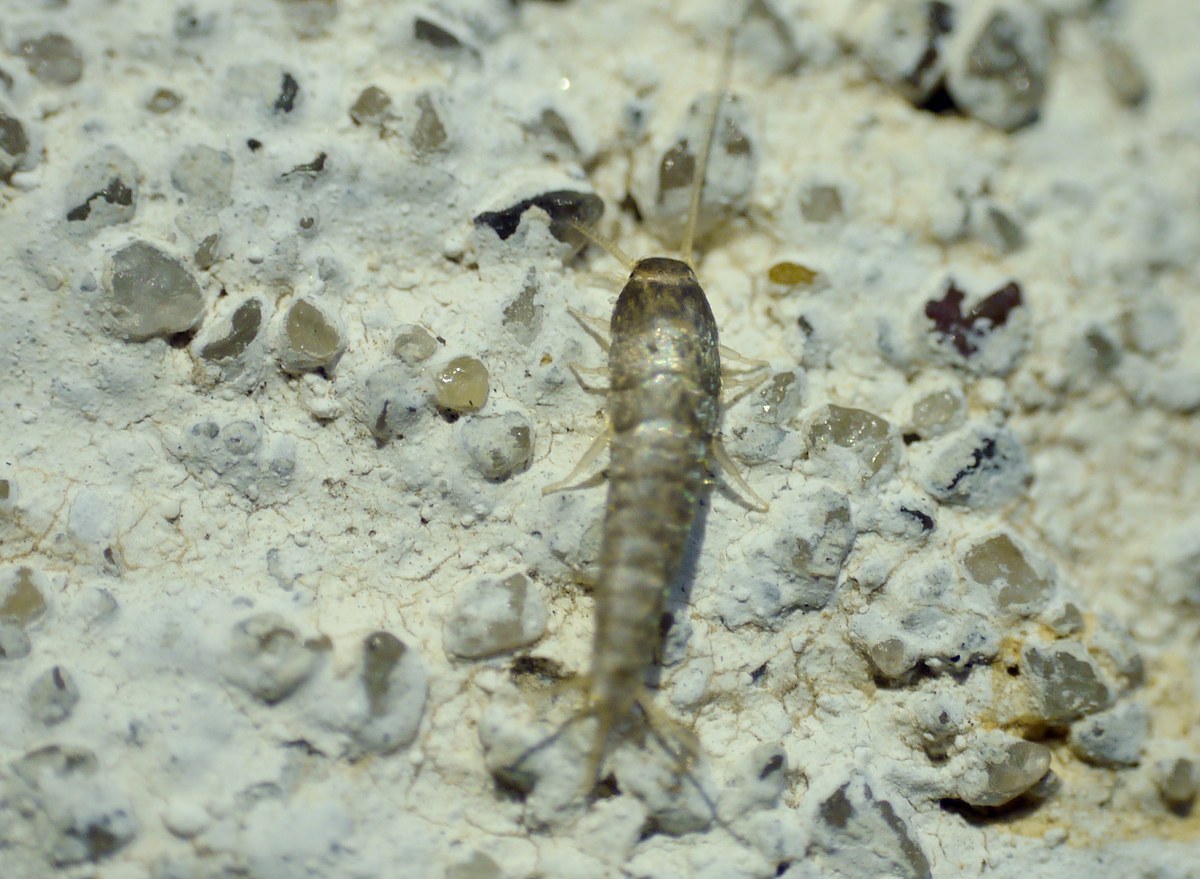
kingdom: Animalia
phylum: Arthropoda
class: Insecta
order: Zygentoma
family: Lepismatidae
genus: Lepisma
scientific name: Lepisma saccharinum
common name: Silverfish
